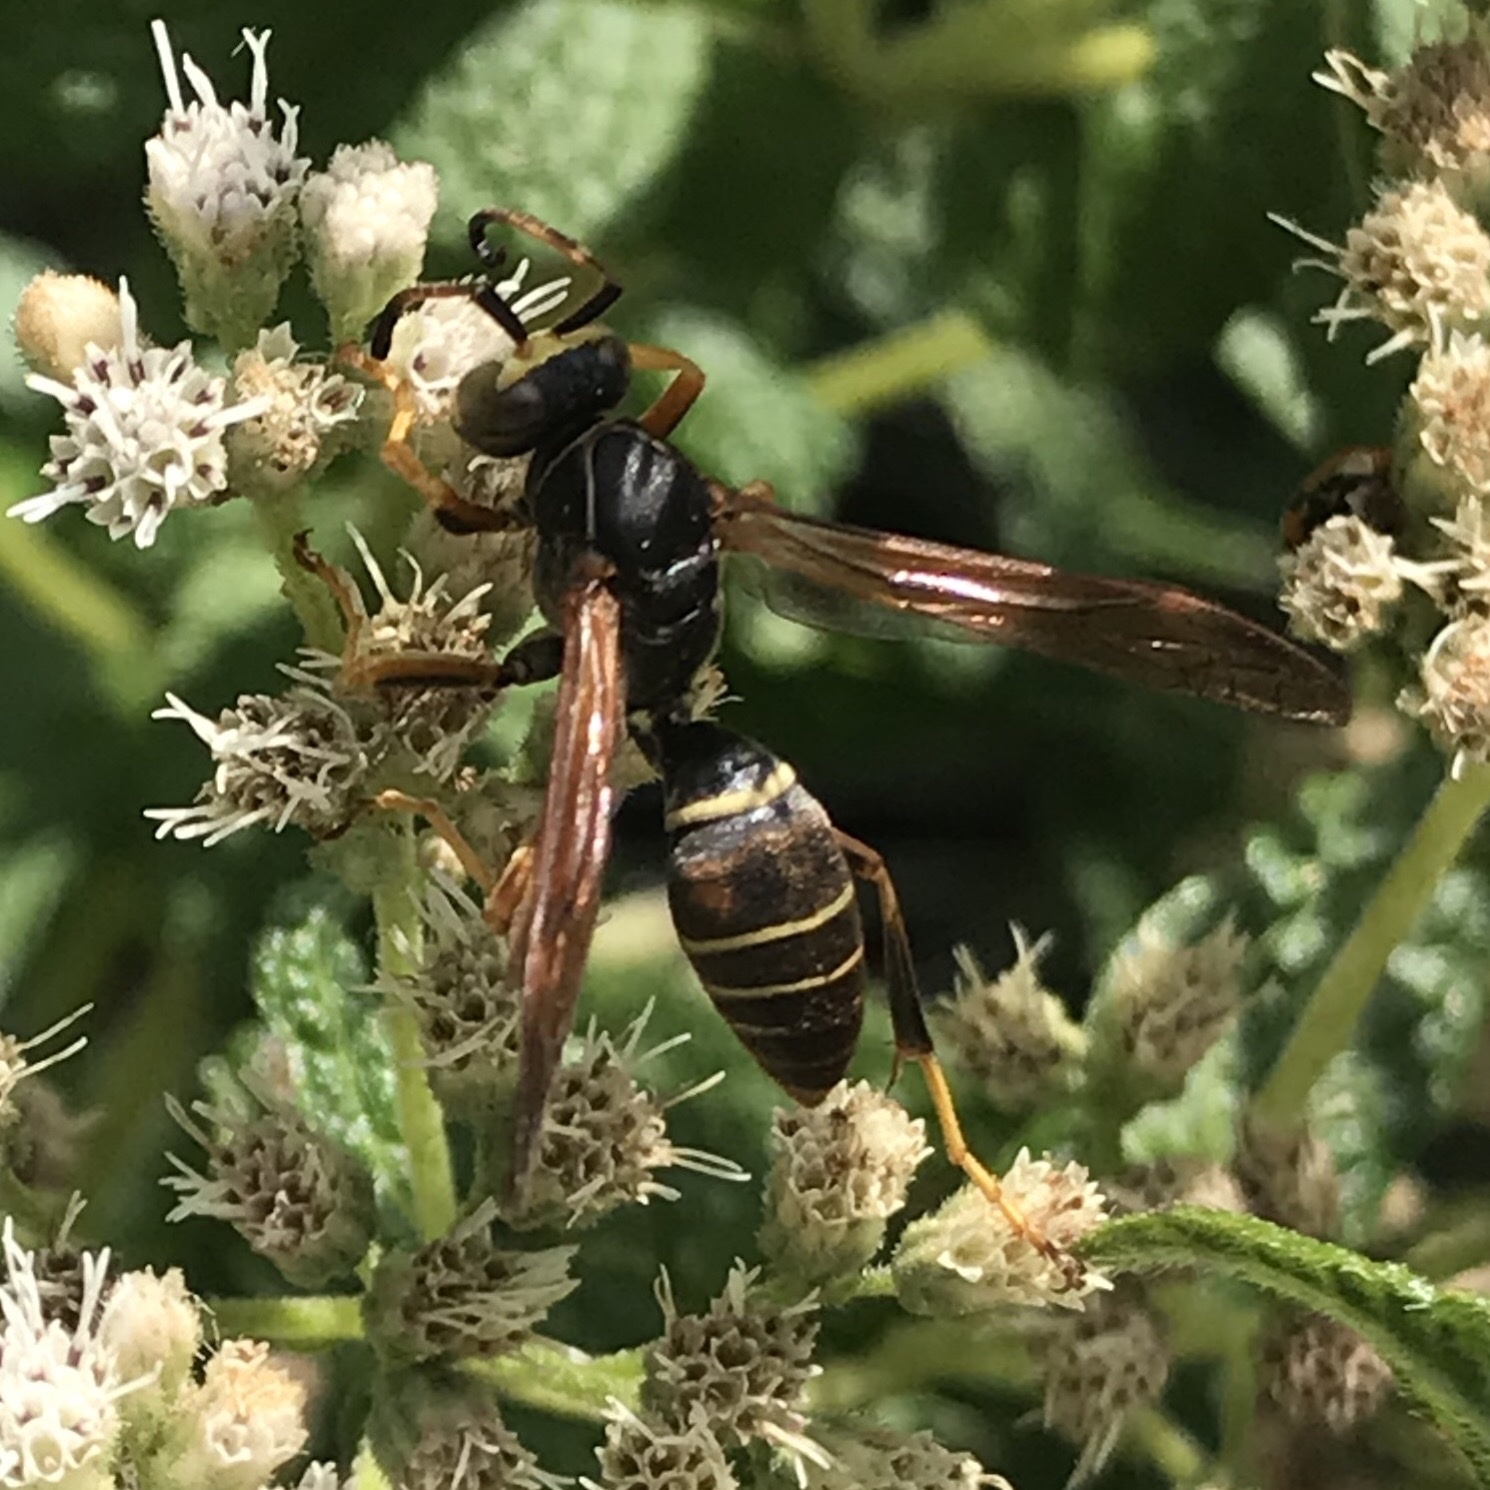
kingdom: Animalia
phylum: Arthropoda
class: Insecta
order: Hymenoptera
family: Eumenidae
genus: Polistes
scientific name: Polistes fuscatus
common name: Dark paper wasp
